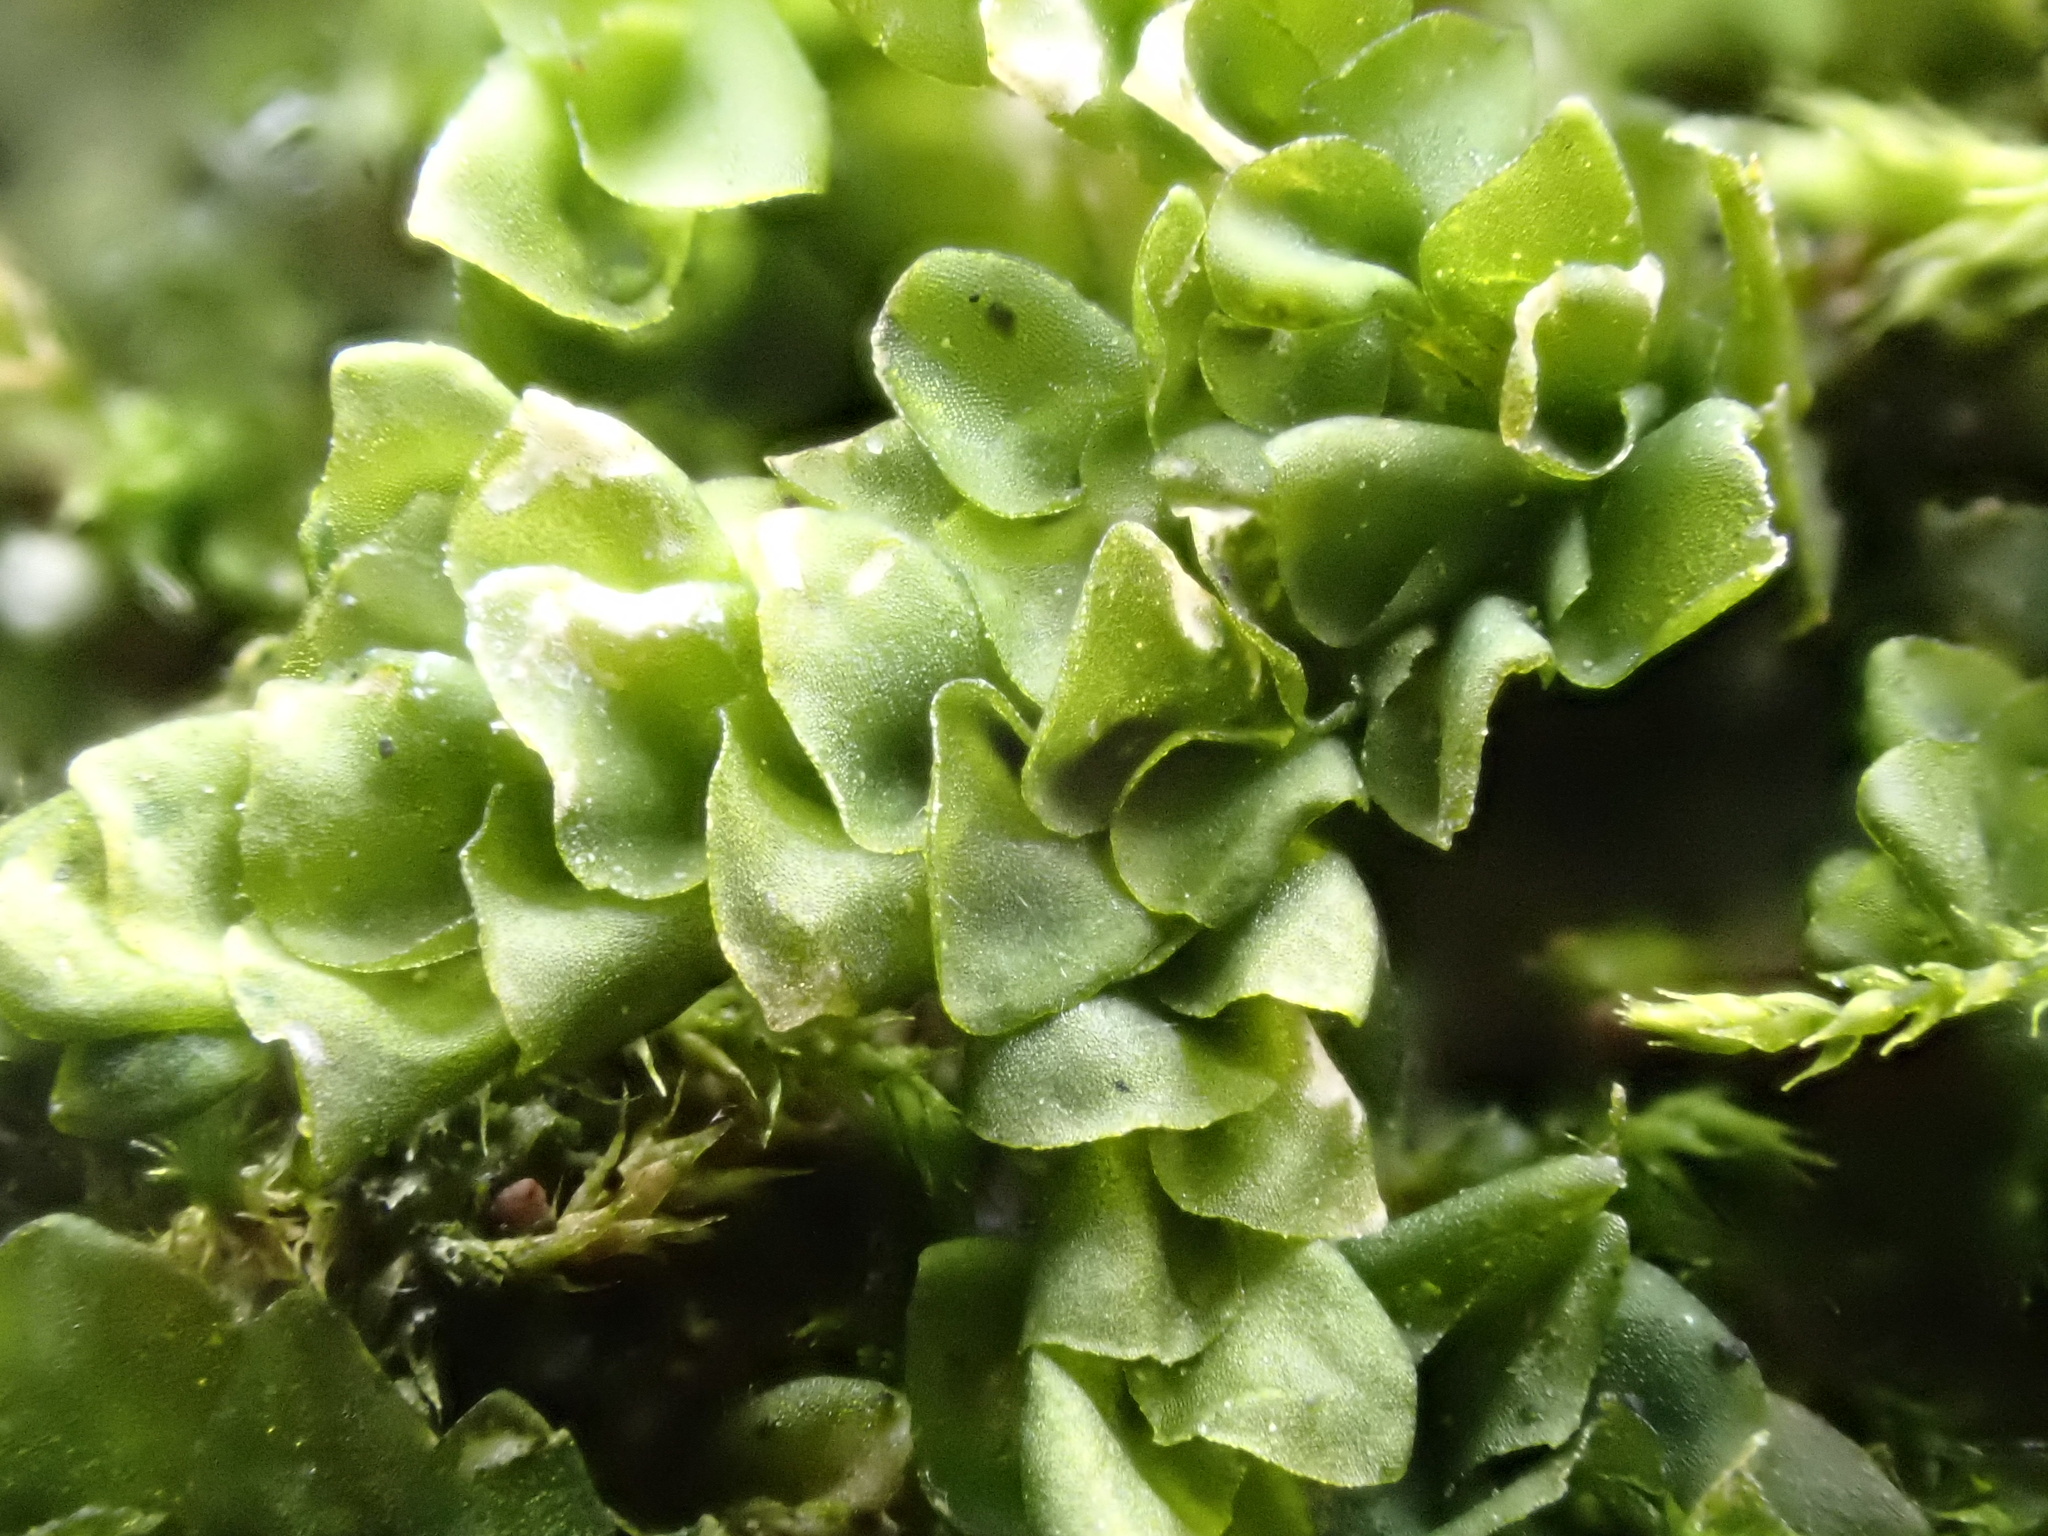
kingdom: Plantae
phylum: Marchantiophyta
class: Jungermanniopsida
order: Porellales
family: Porellaceae
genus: Porella
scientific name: Porella platyphylla
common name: Wall scalewort
